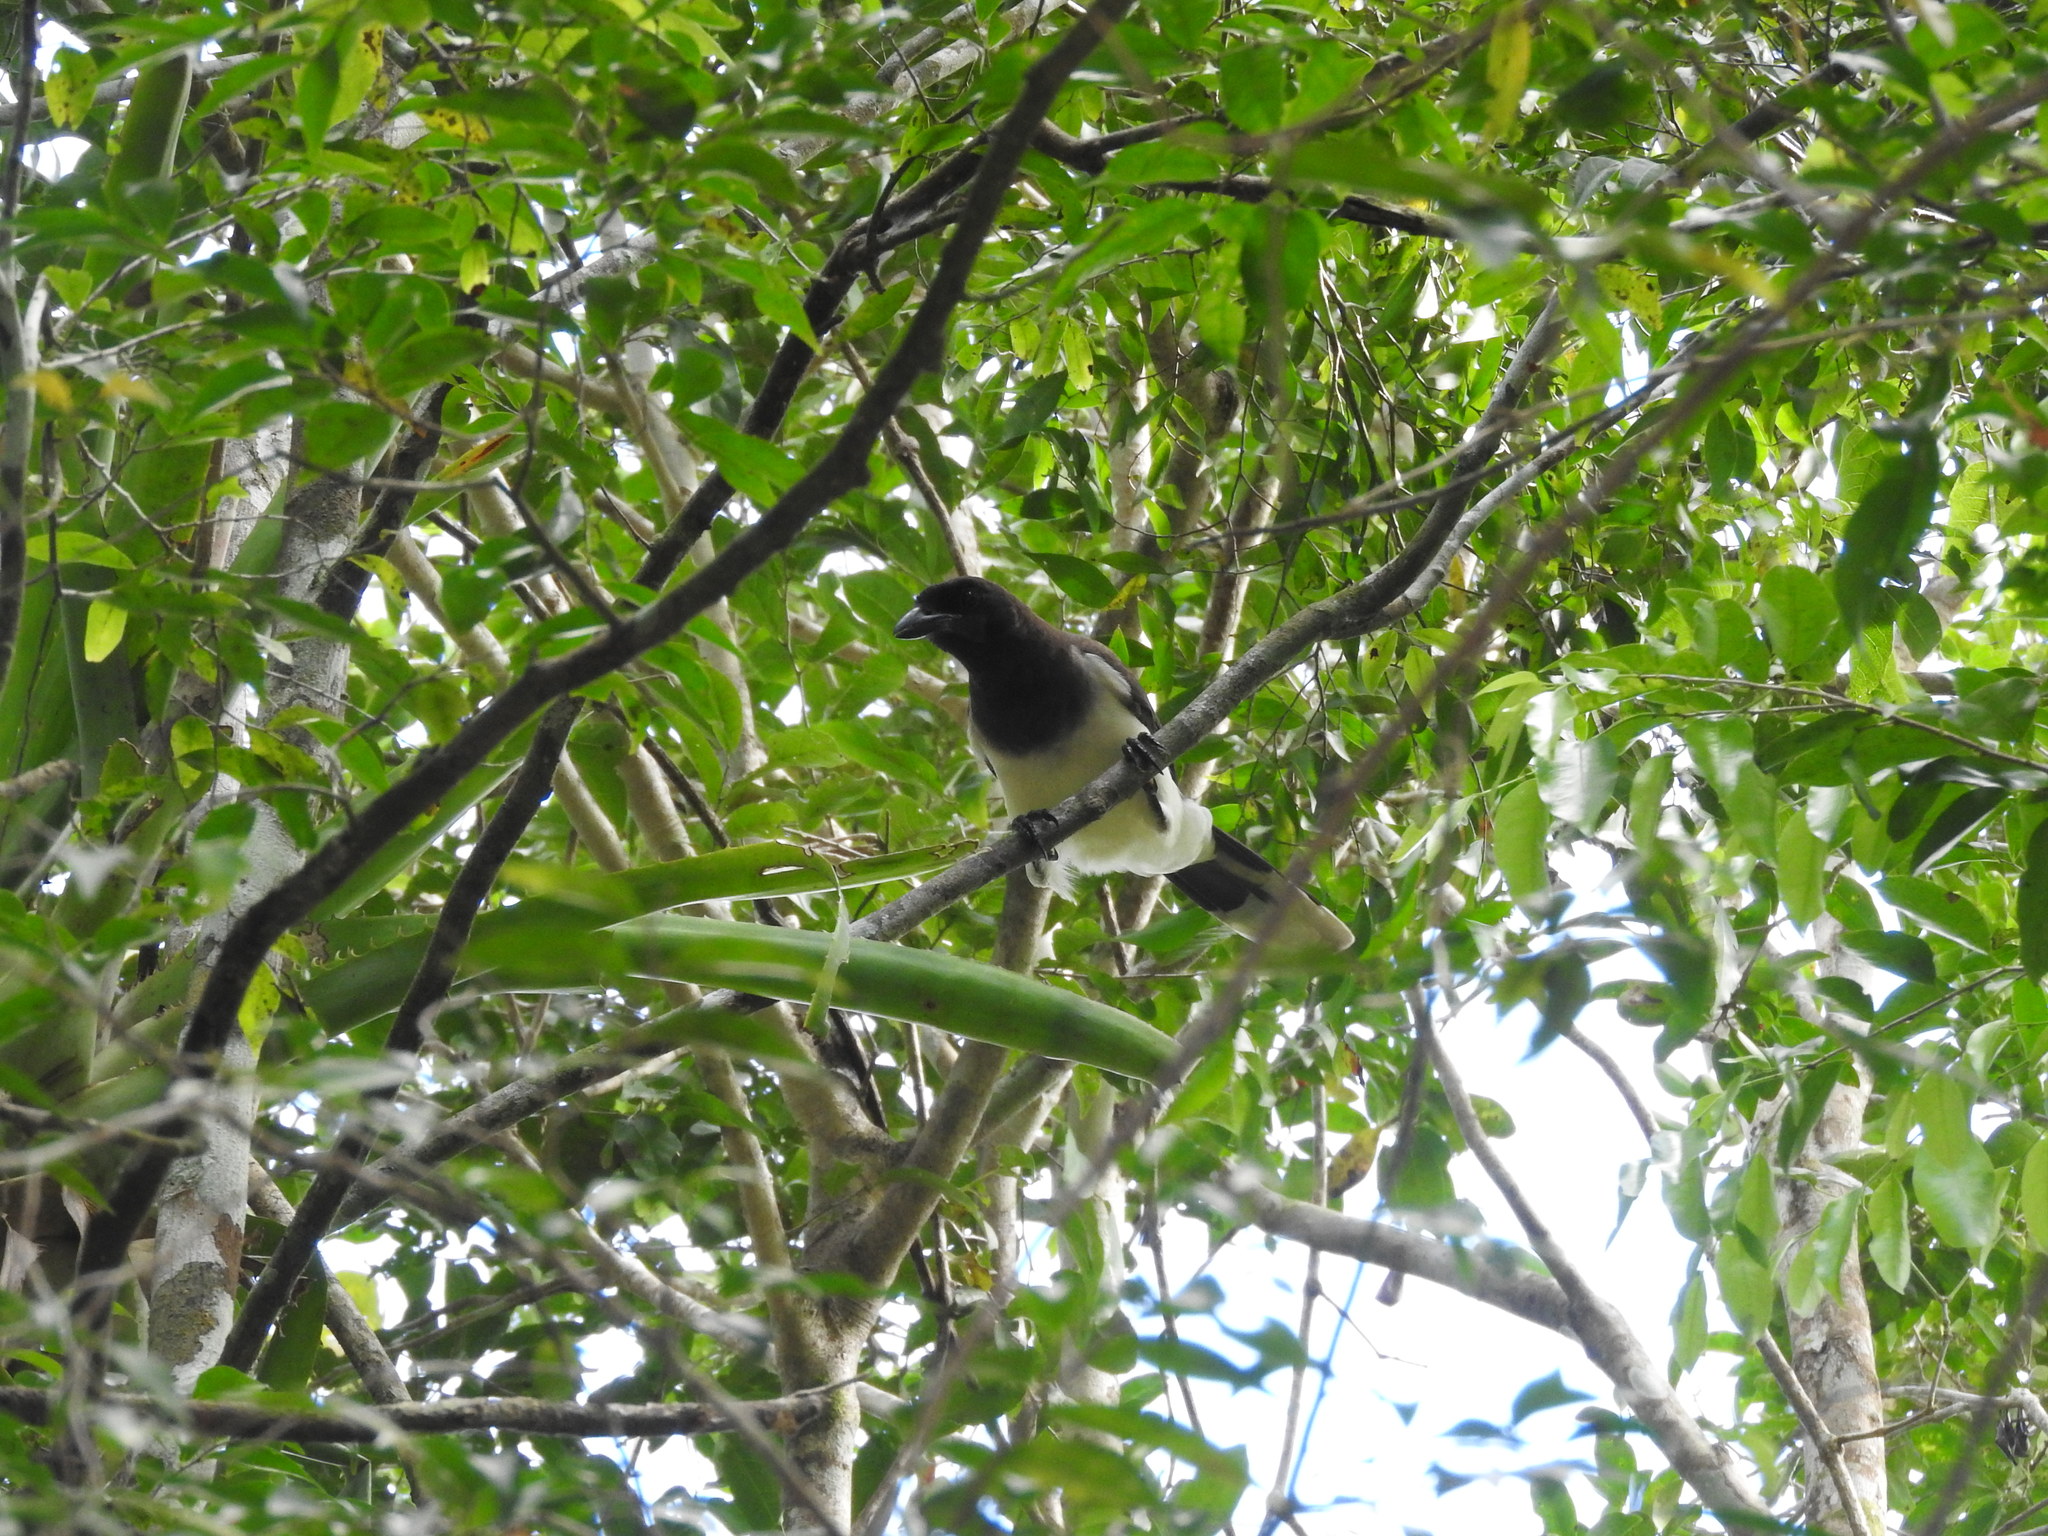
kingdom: Animalia
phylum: Chordata
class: Aves
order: Passeriformes
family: Corvidae
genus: Psilorhinus
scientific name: Psilorhinus morio
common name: Brown jay
